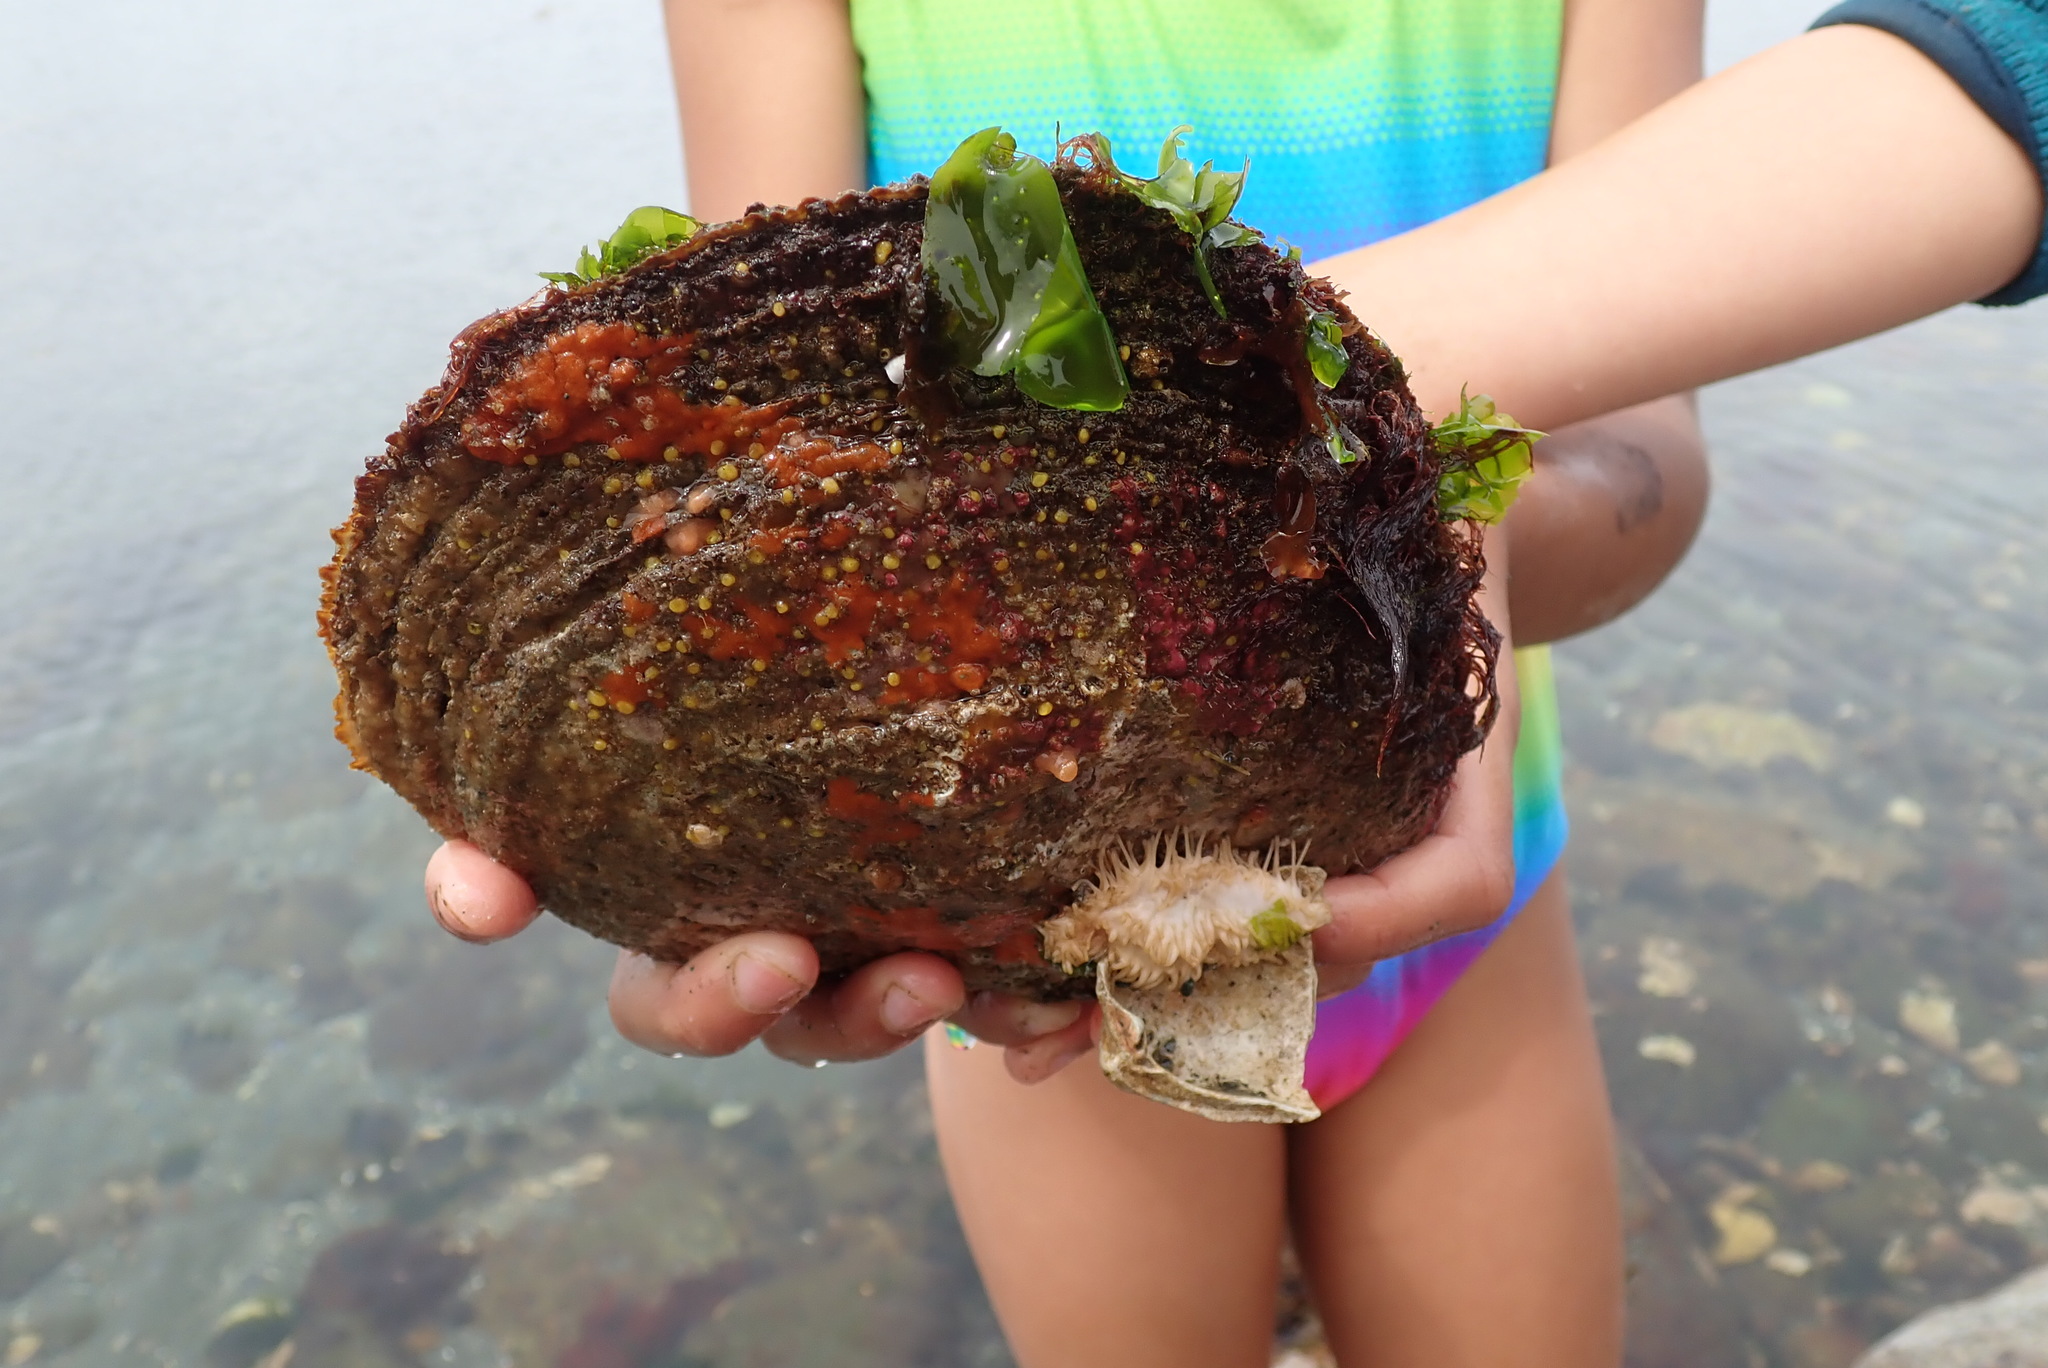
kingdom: Animalia
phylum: Mollusca
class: Bivalvia
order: Pectinida
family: Pectinidae
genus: Crassadoma
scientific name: Crassadoma gigantea
